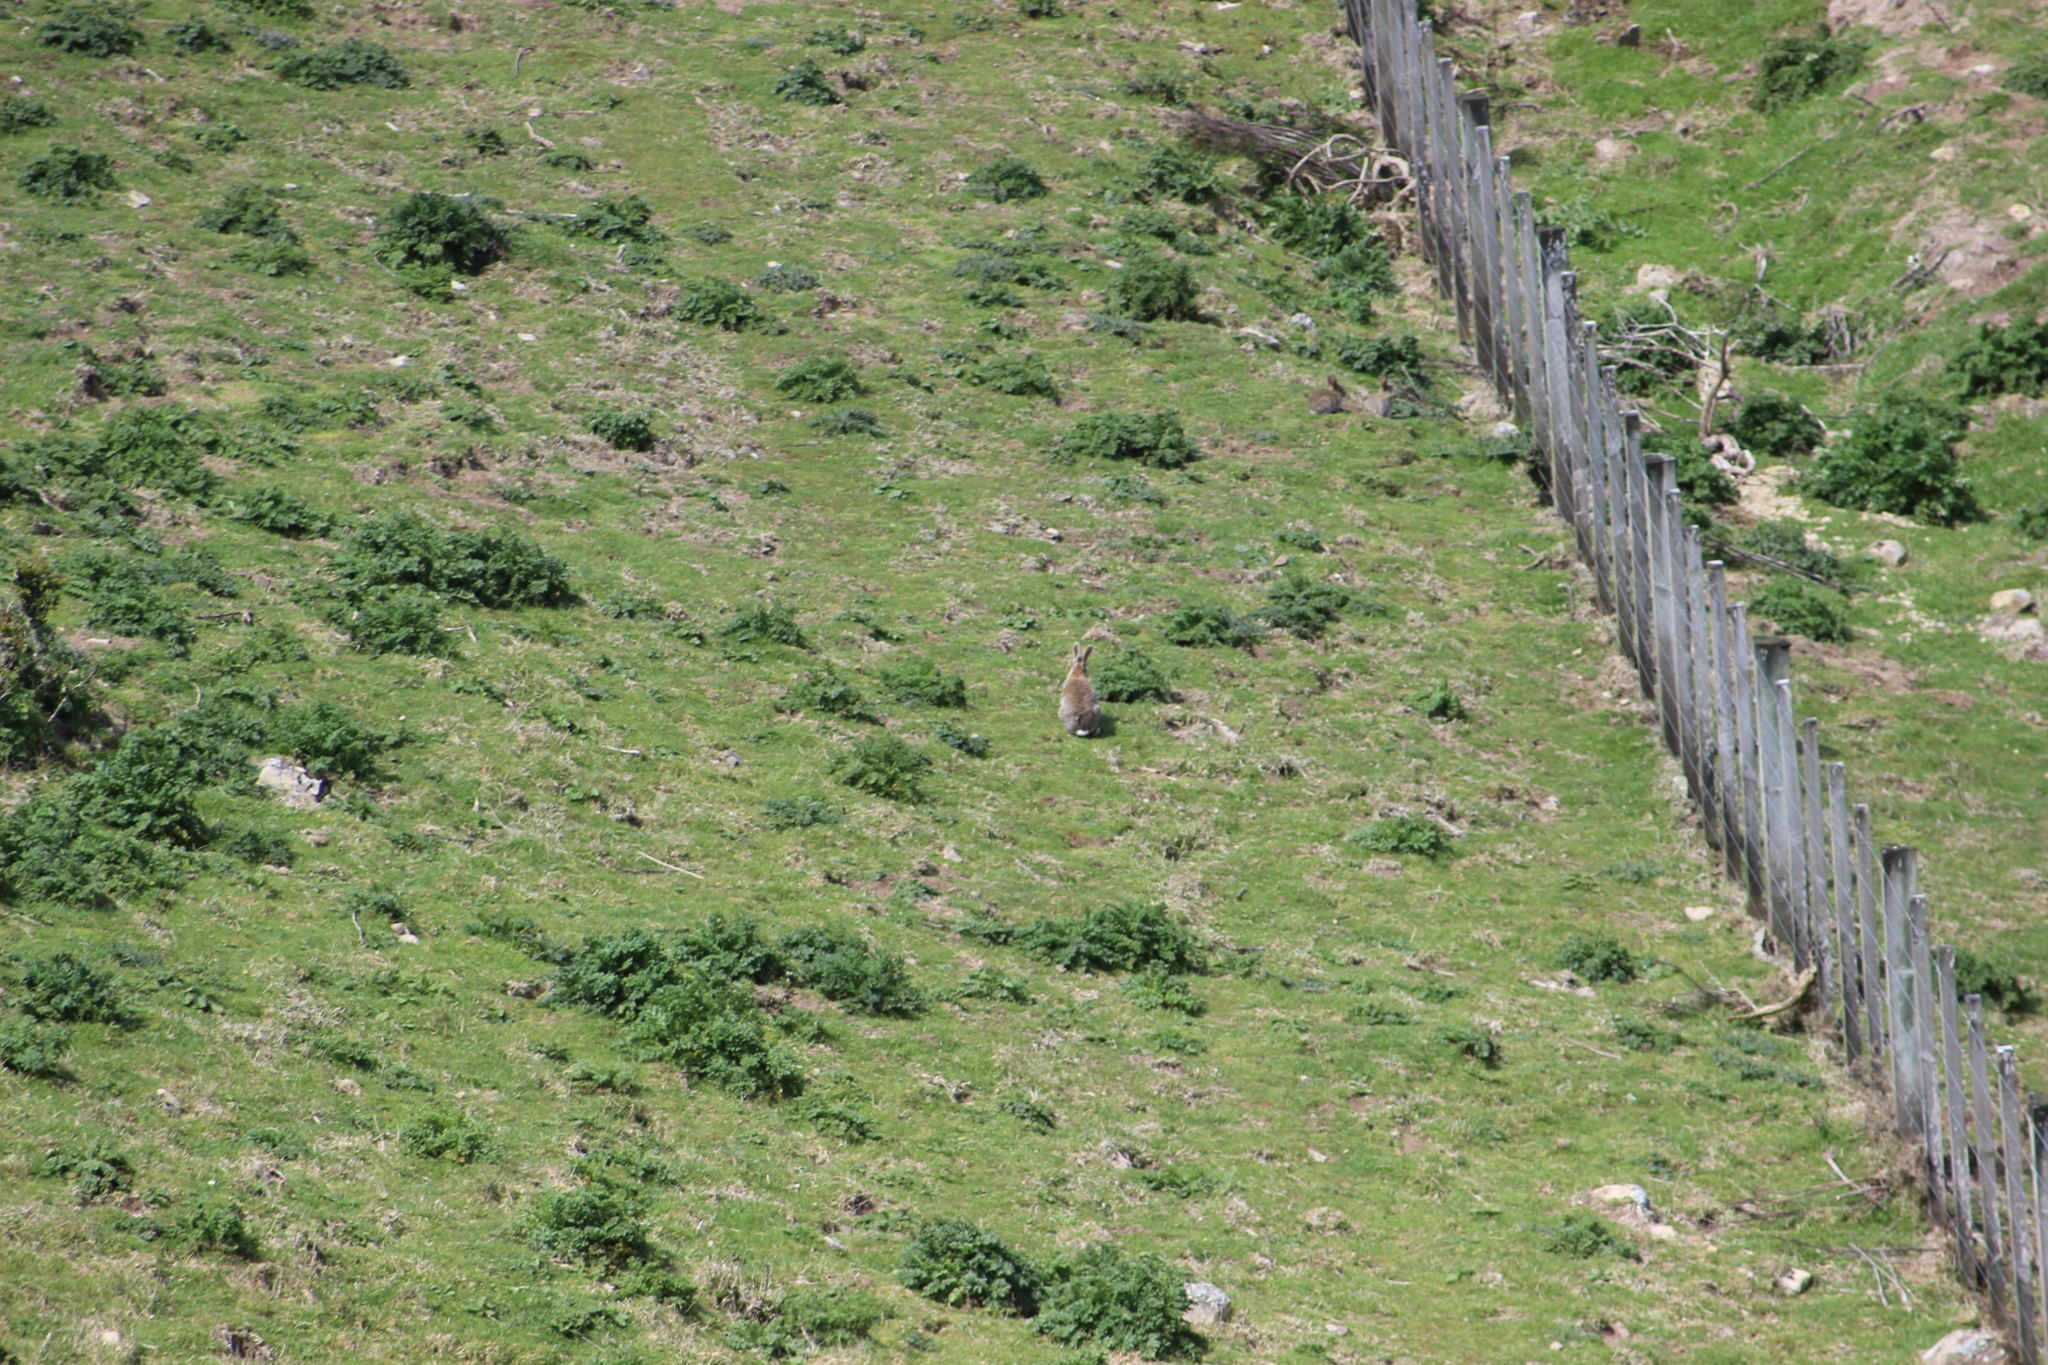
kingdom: Animalia
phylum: Chordata
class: Mammalia
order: Lagomorpha
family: Leporidae
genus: Oryctolagus
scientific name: Oryctolagus cuniculus
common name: European rabbit
